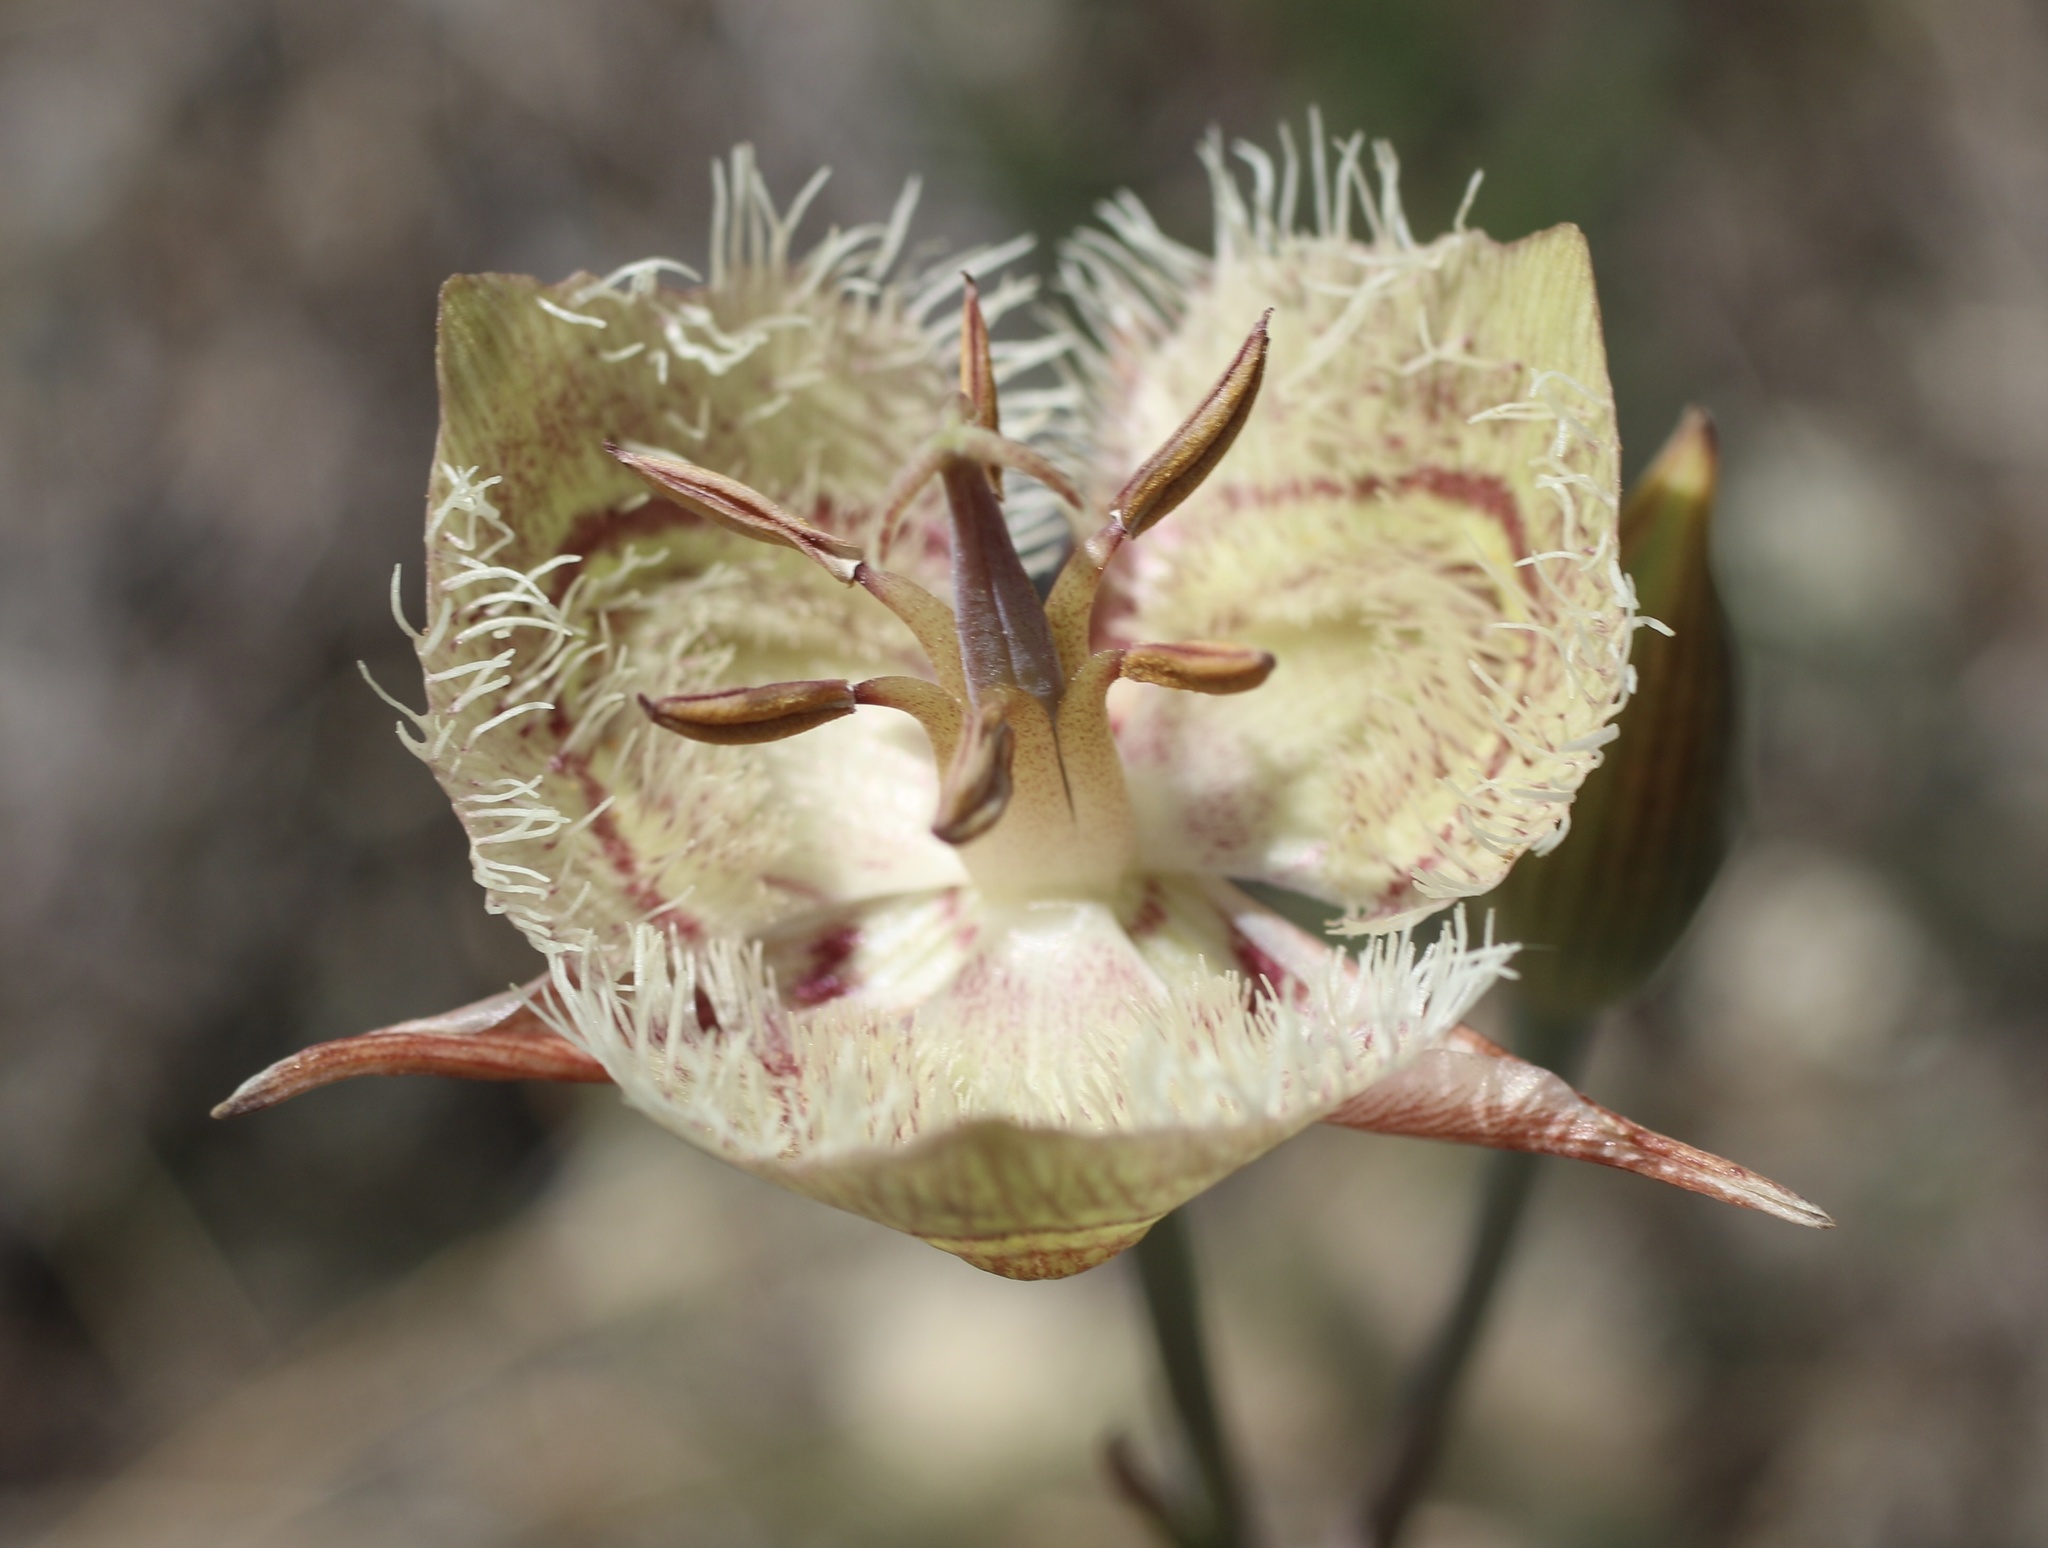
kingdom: Plantae
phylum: Tracheophyta
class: Liliopsida
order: Liliales
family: Liliaceae
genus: Calochortus
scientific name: Calochortus tiburonensis
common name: Tiburon mariposa-lily
